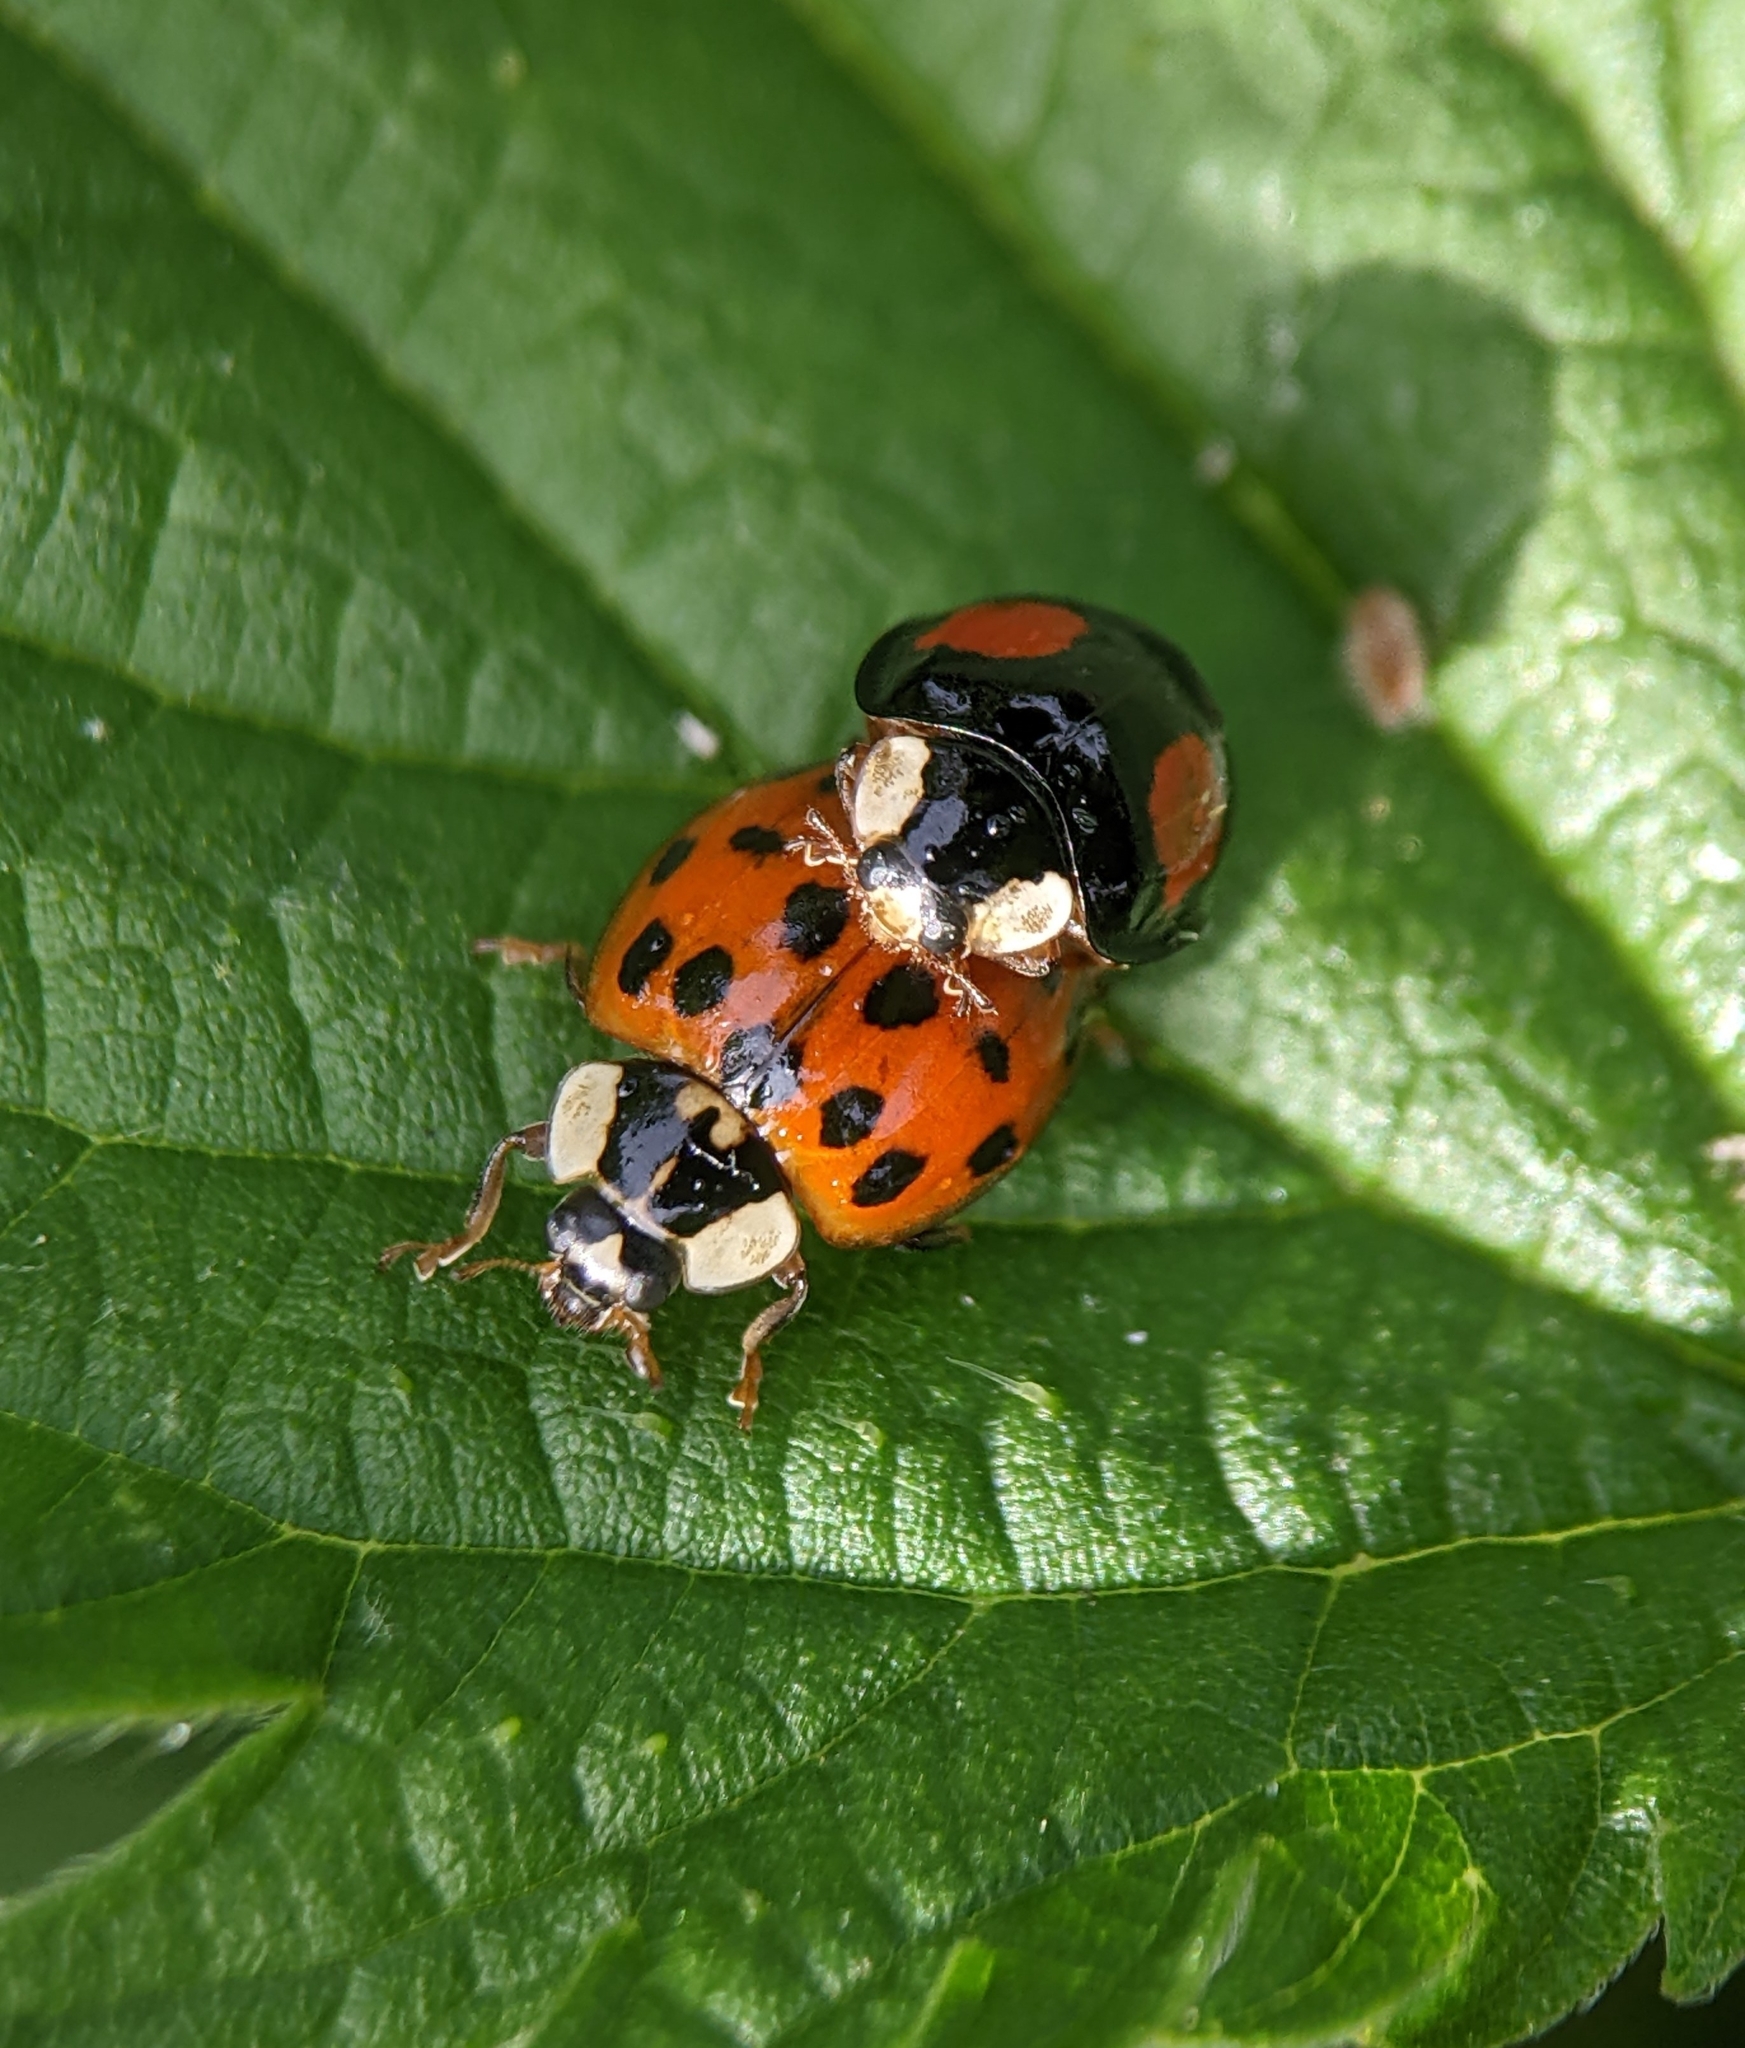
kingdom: Animalia
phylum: Arthropoda
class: Insecta
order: Coleoptera
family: Coccinellidae
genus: Harmonia
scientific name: Harmonia axyridis
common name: Harlequin ladybird
